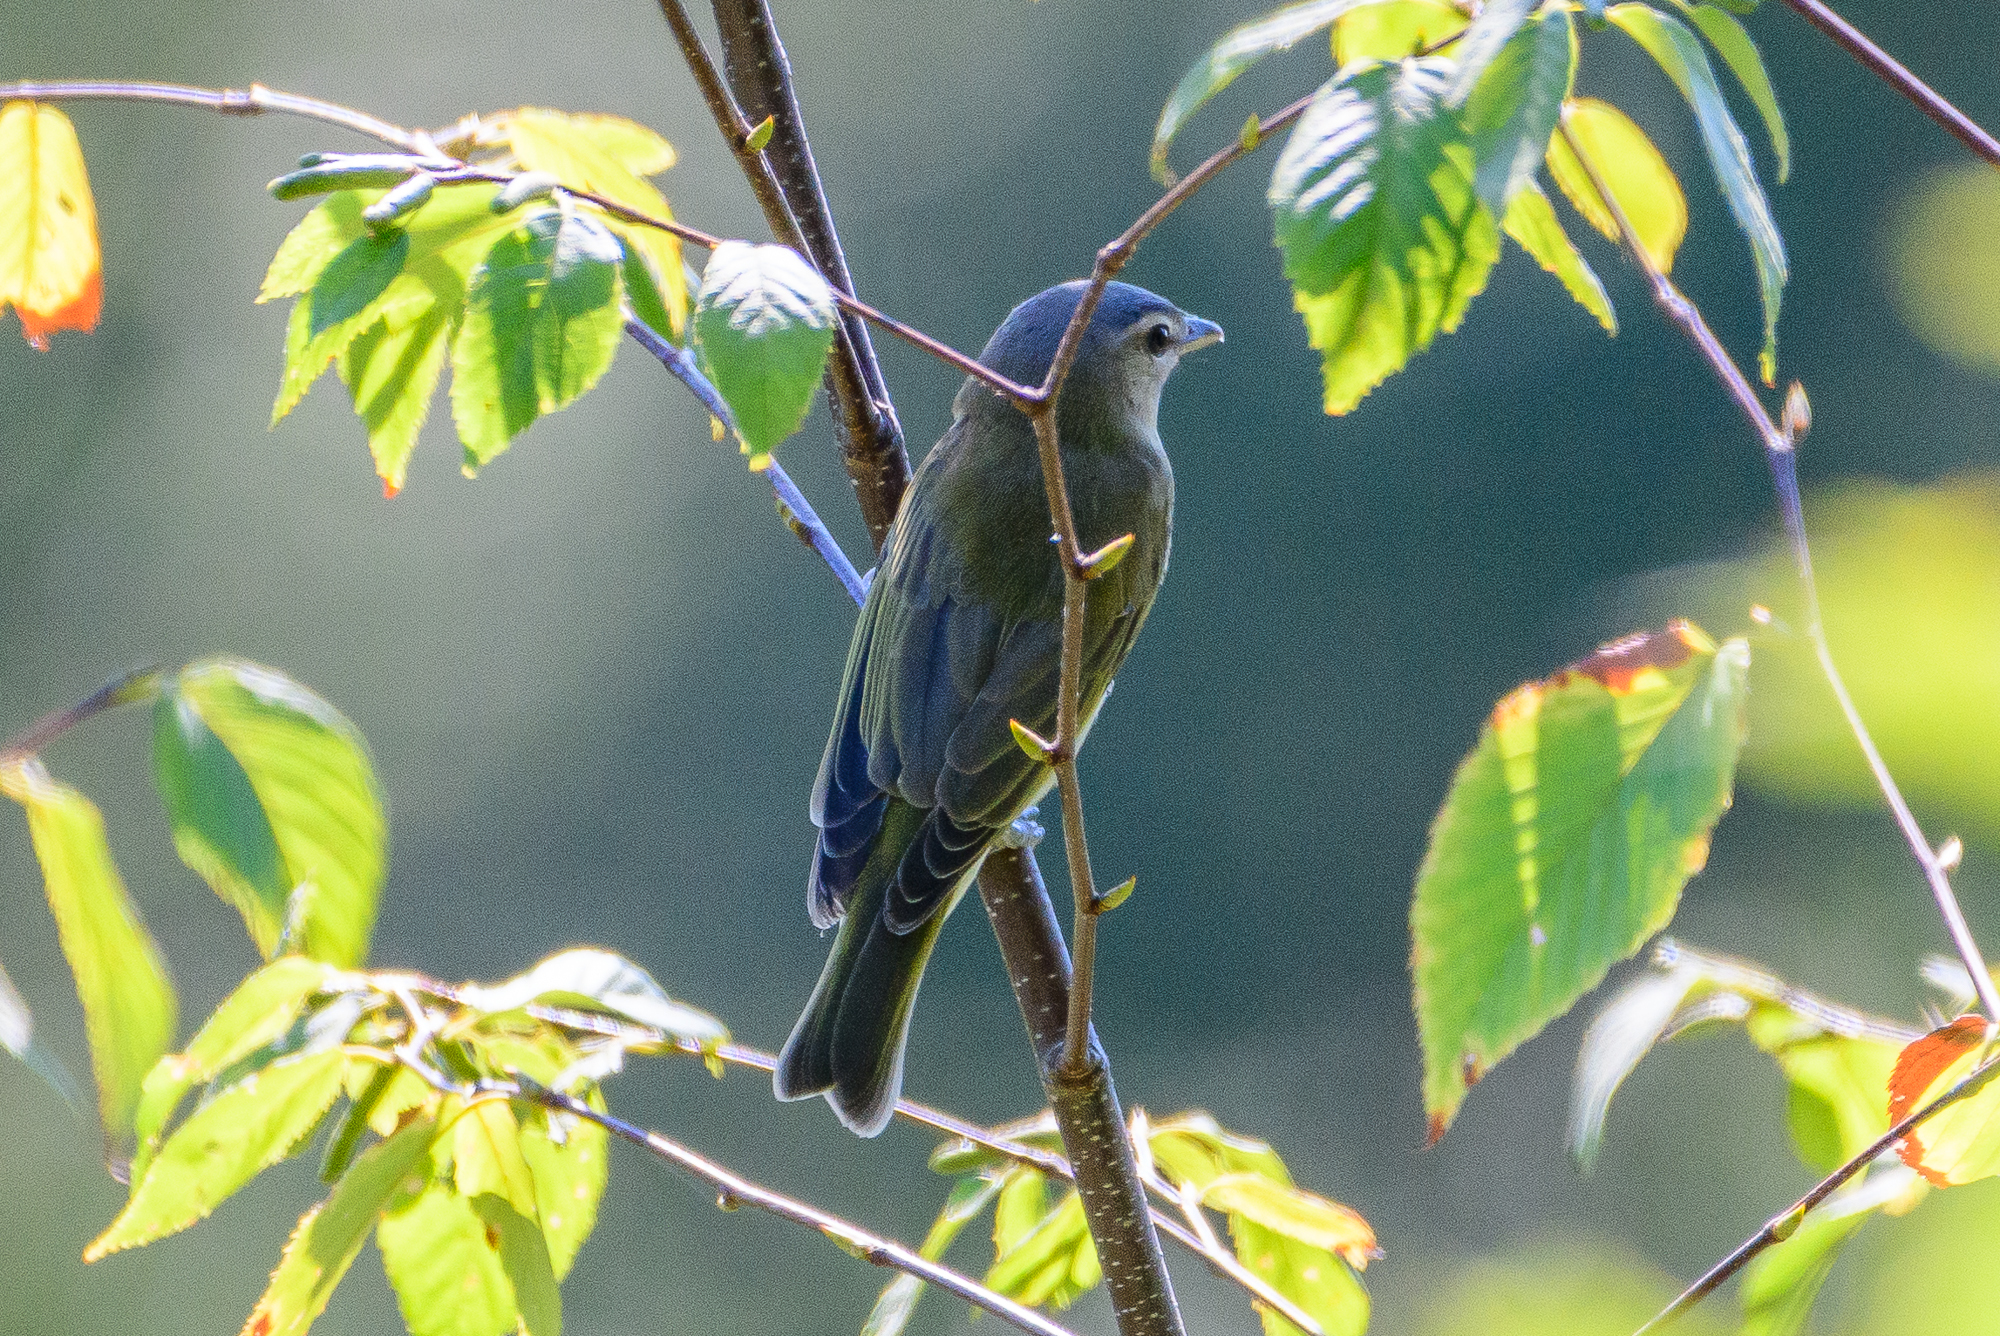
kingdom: Animalia
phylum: Chordata
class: Aves
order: Passeriformes
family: Vireonidae
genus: Vireo
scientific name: Vireo olivaceus
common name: Red-eyed vireo
